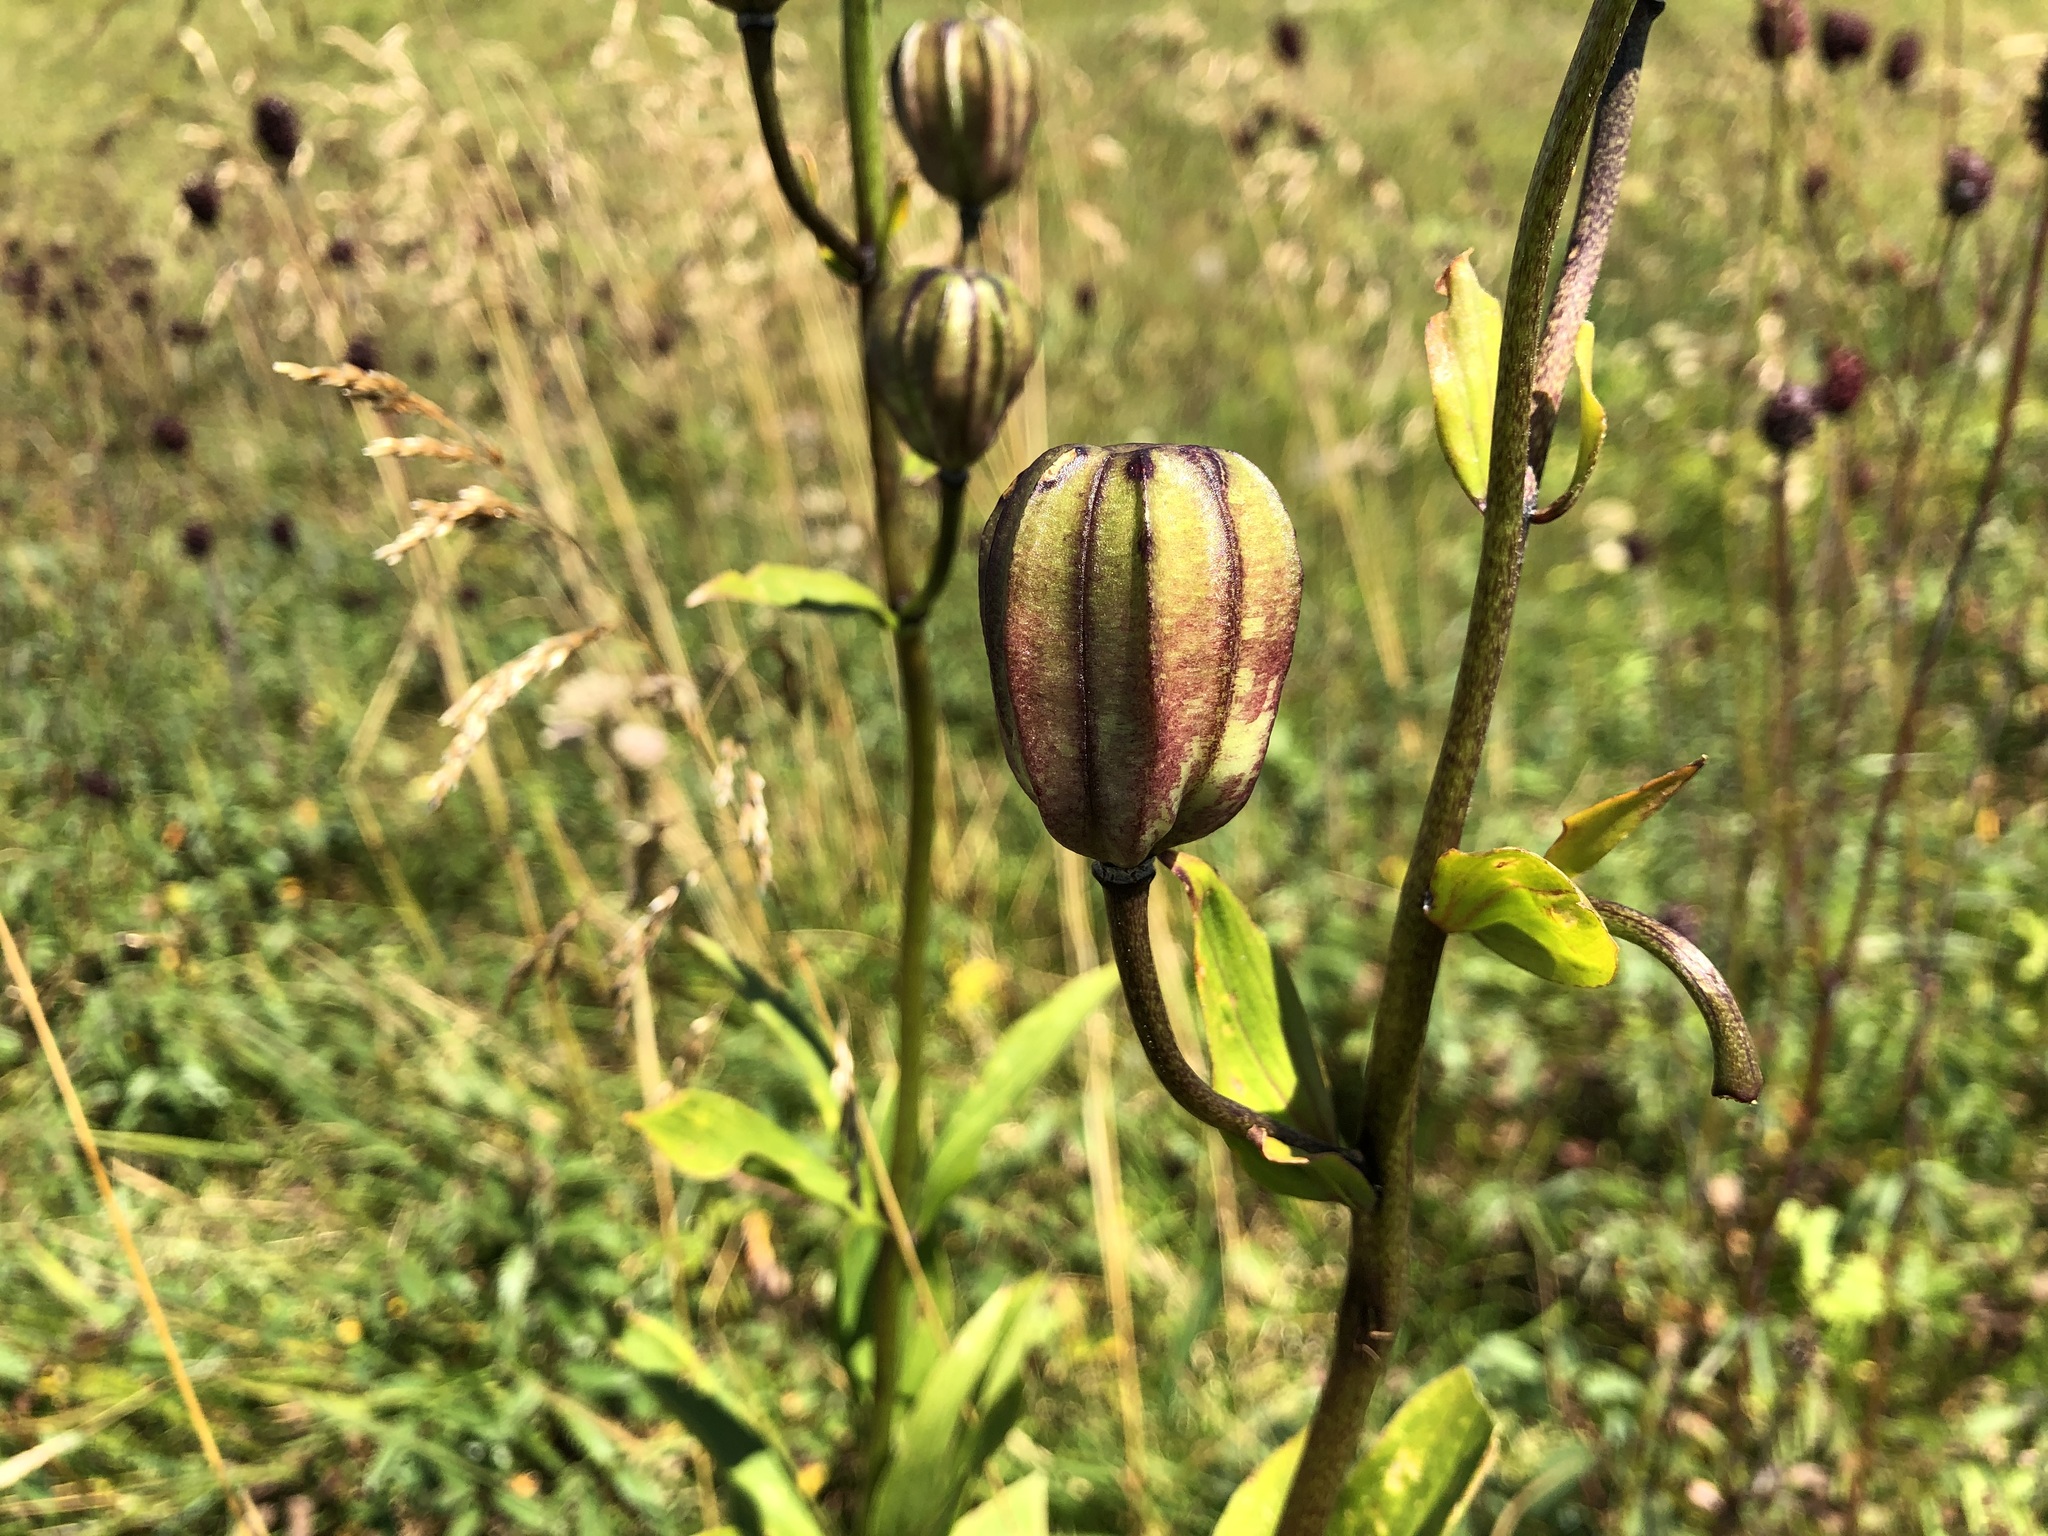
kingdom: Plantae
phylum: Tracheophyta
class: Liliopsida
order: Liliales
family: Liliaceae
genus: Lilium
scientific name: Lilium martagon
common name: Martagon lily
